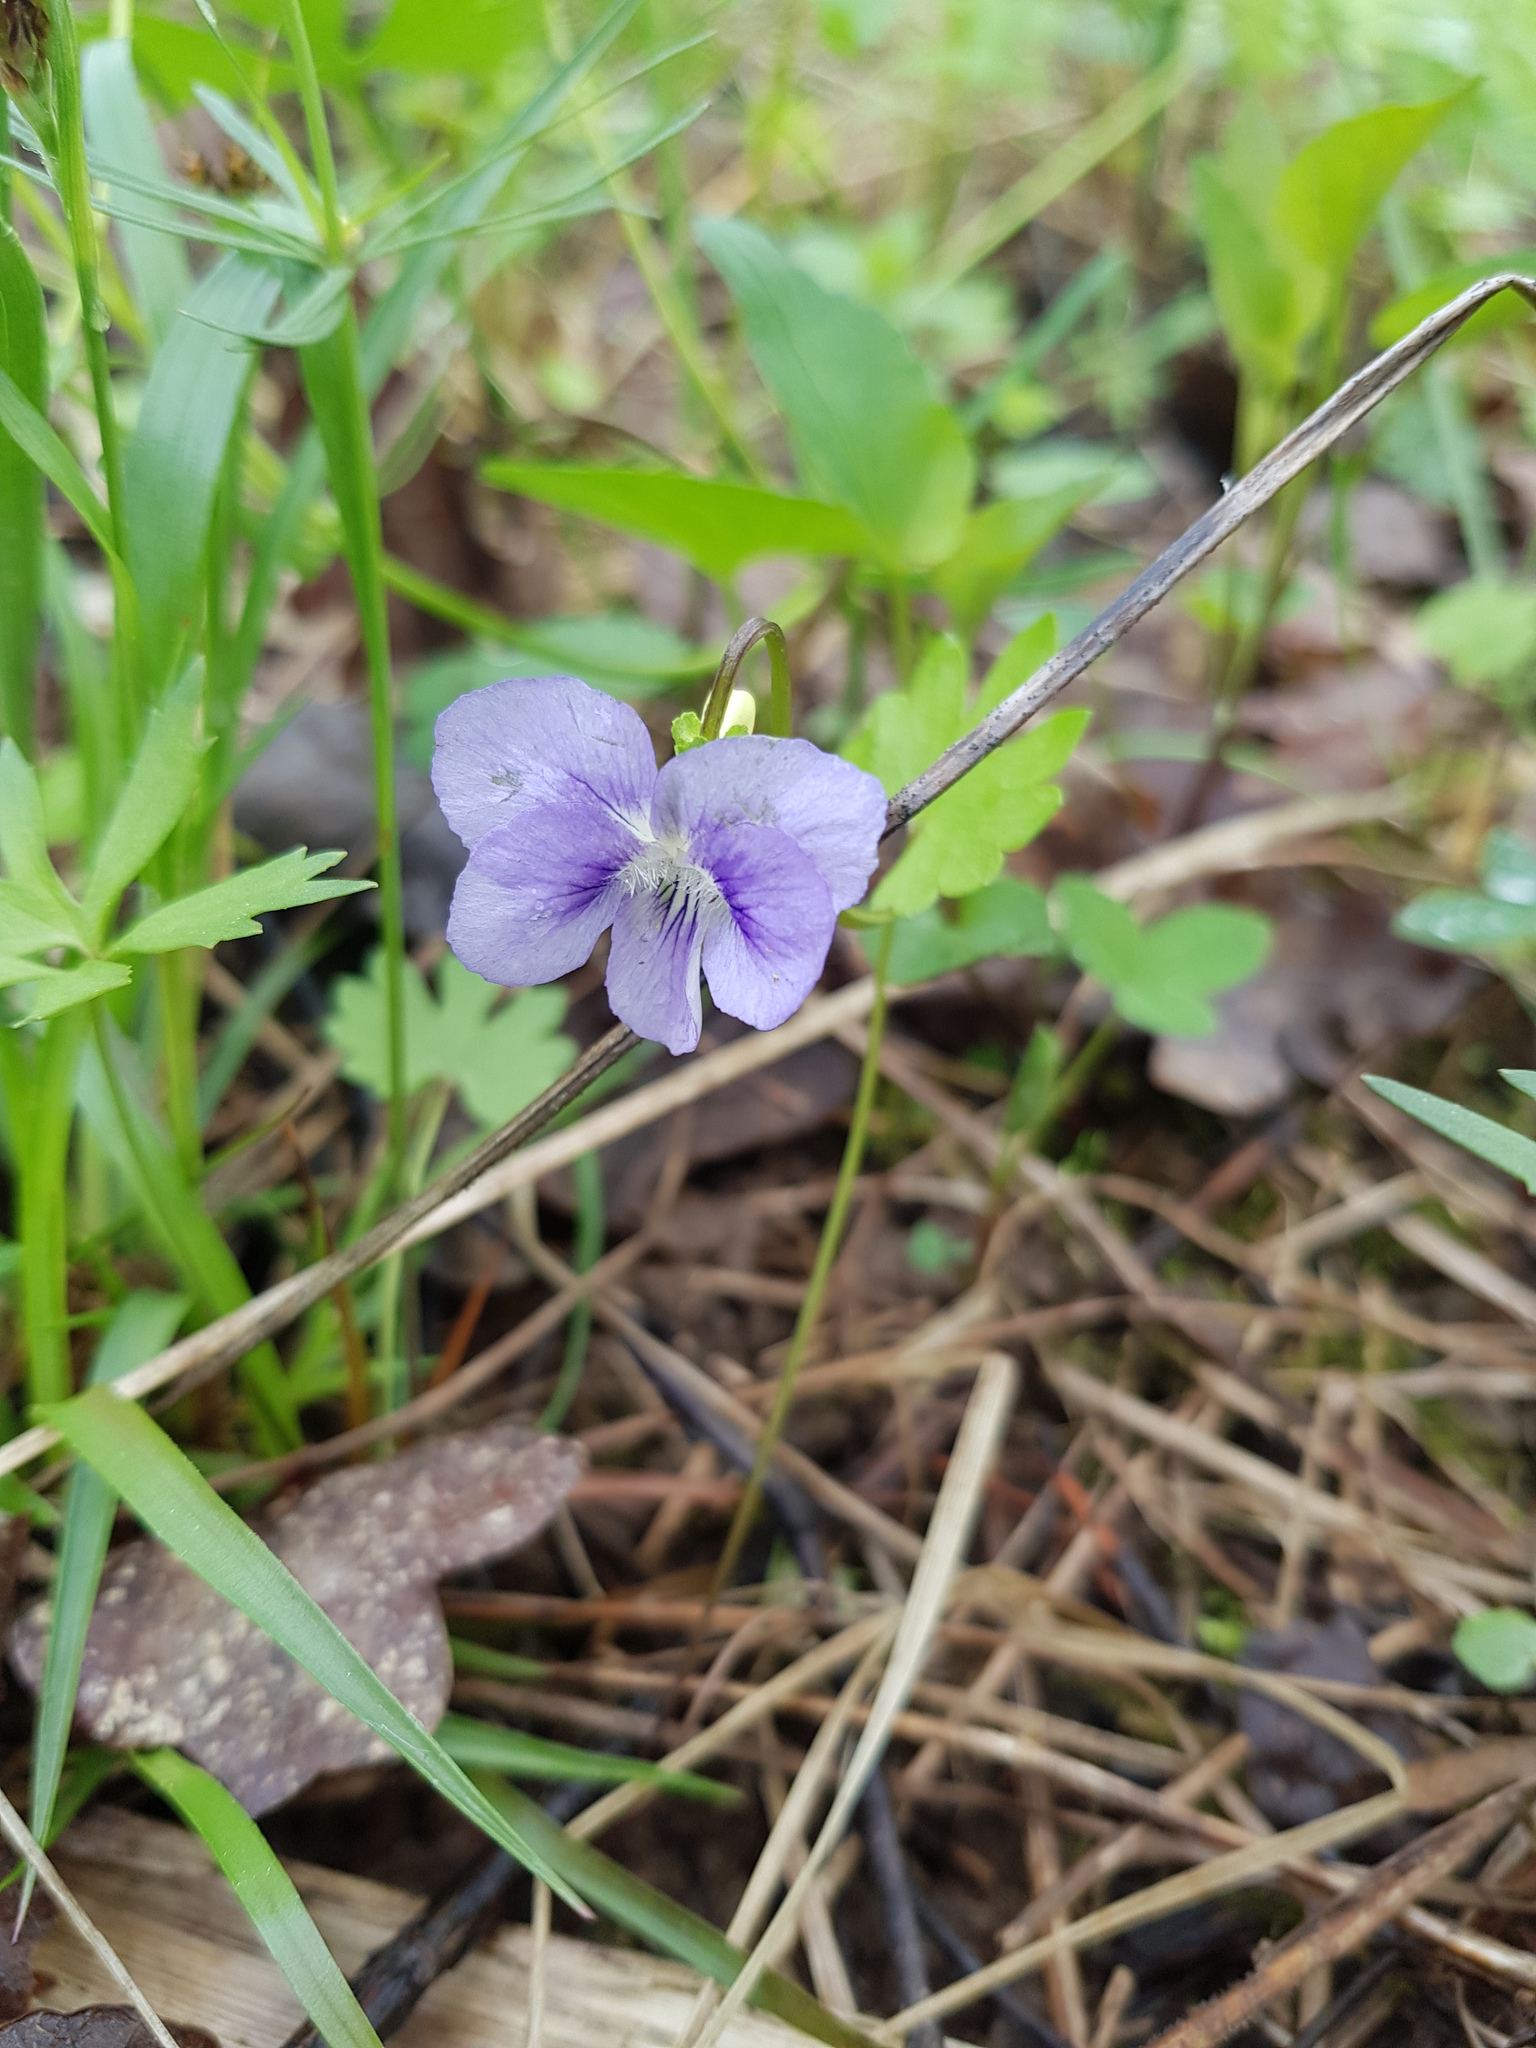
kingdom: Plantae
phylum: Tracheophyta
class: Magnoliopsida
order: Malpighiales
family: Violaceae
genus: Viola
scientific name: Viola canina
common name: Heath dog-violet
